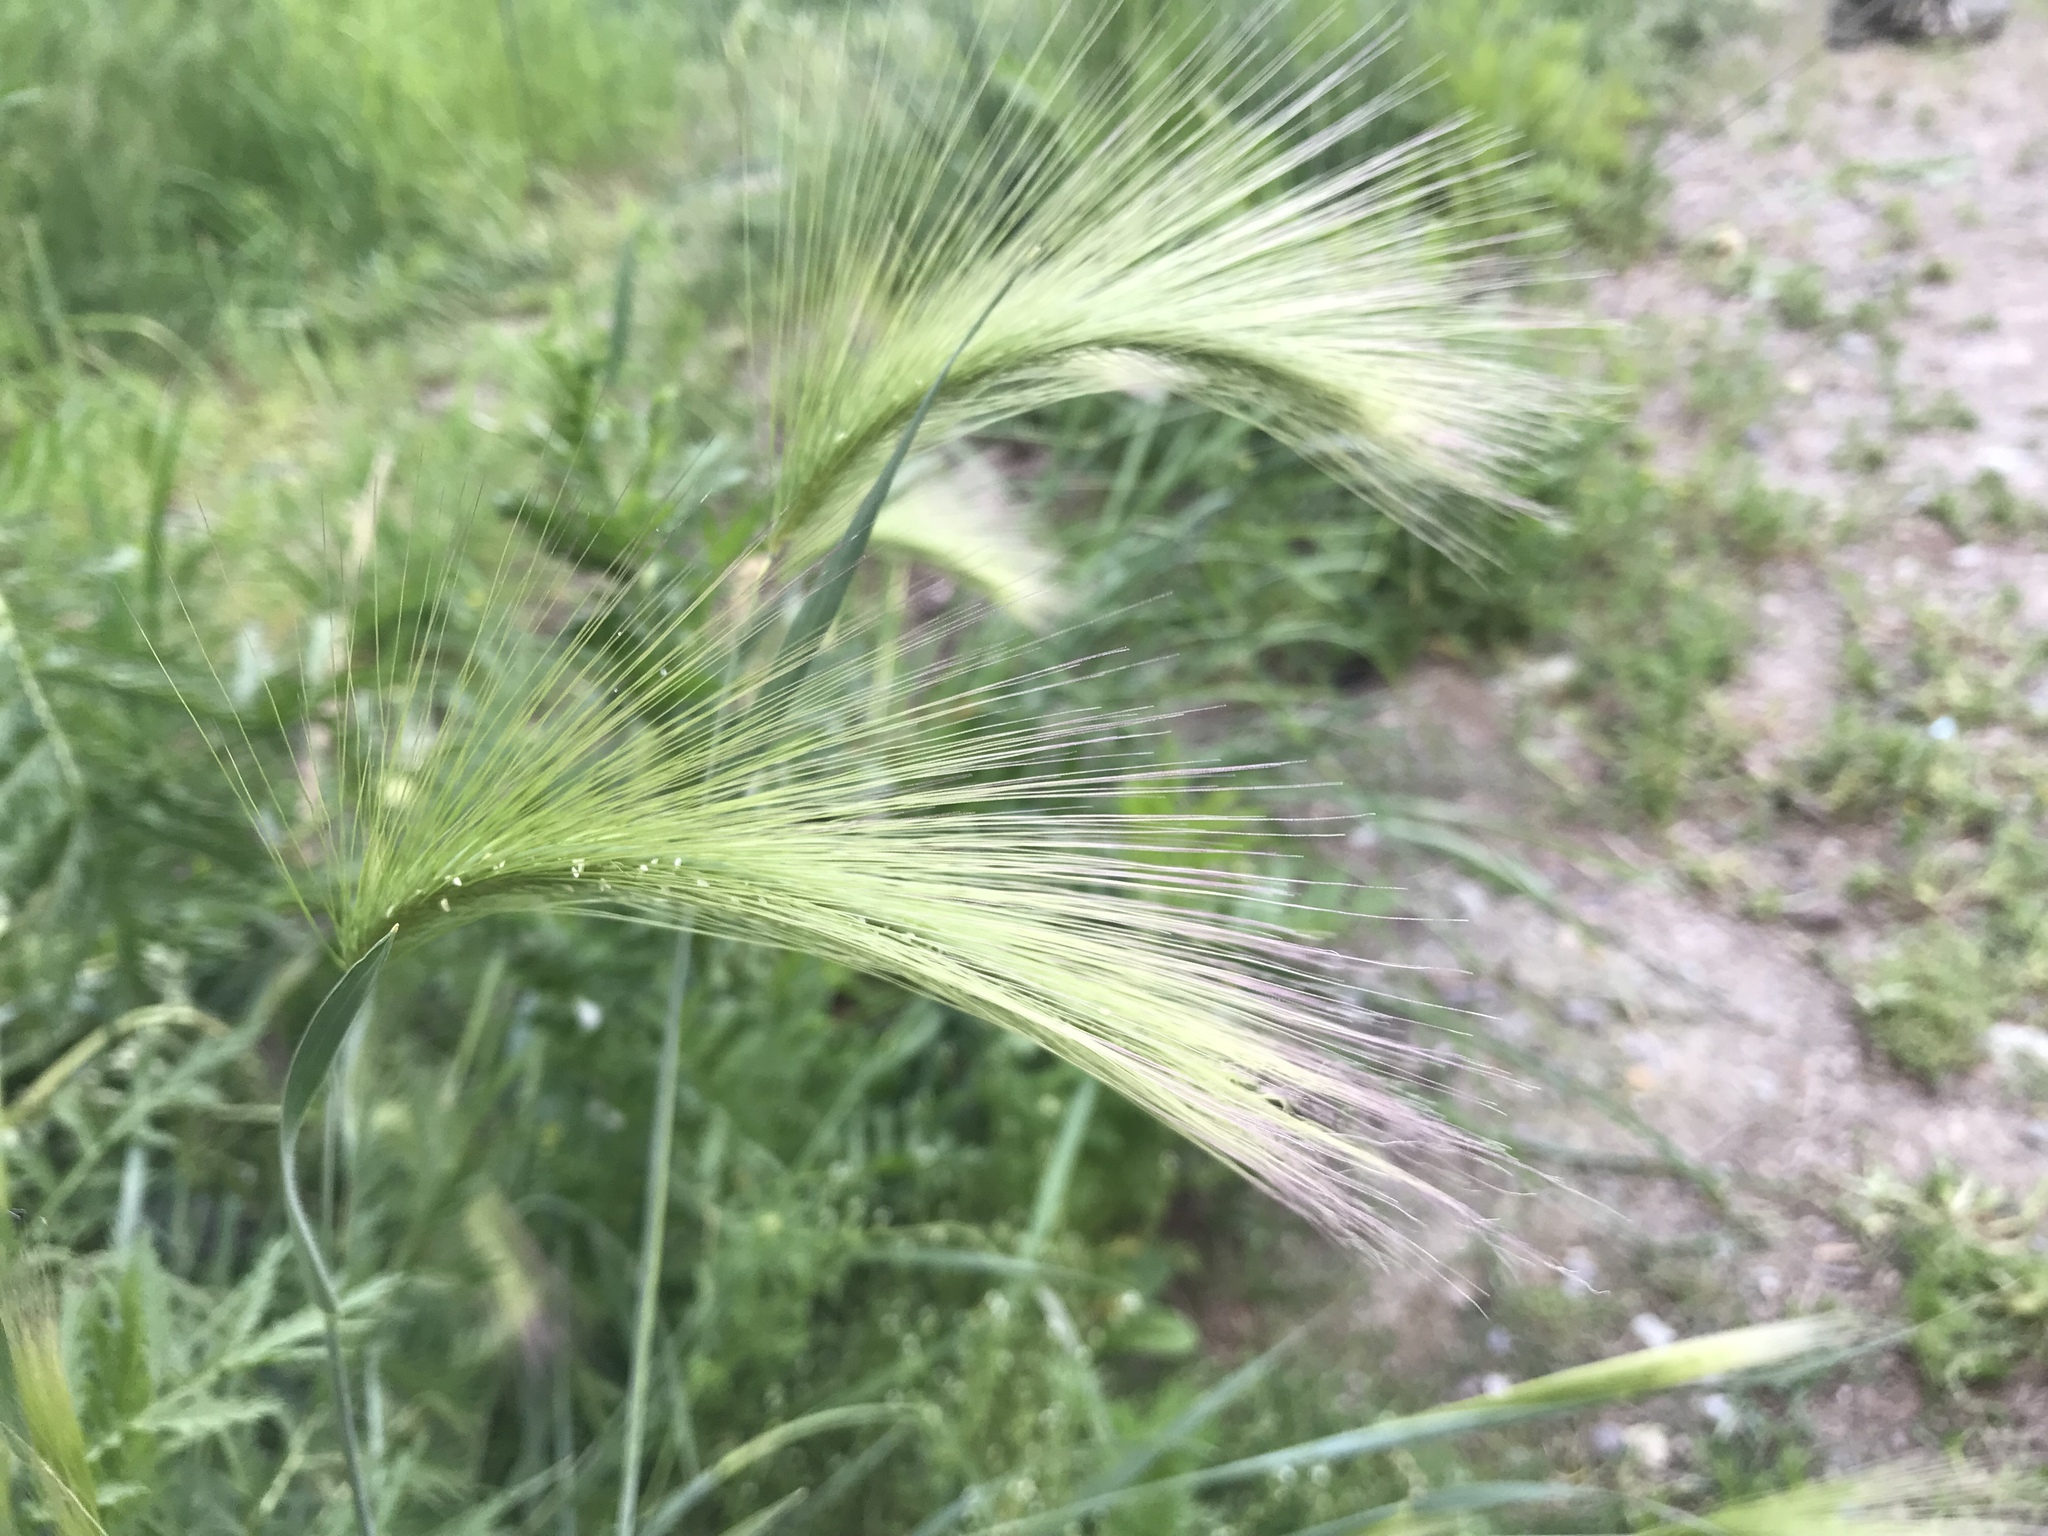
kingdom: Plantae
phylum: Tracheophyta
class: Liliopsida
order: Poales
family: Poaceae
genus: Hordeum
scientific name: Hordeum jubatum
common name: Foxtail barley
